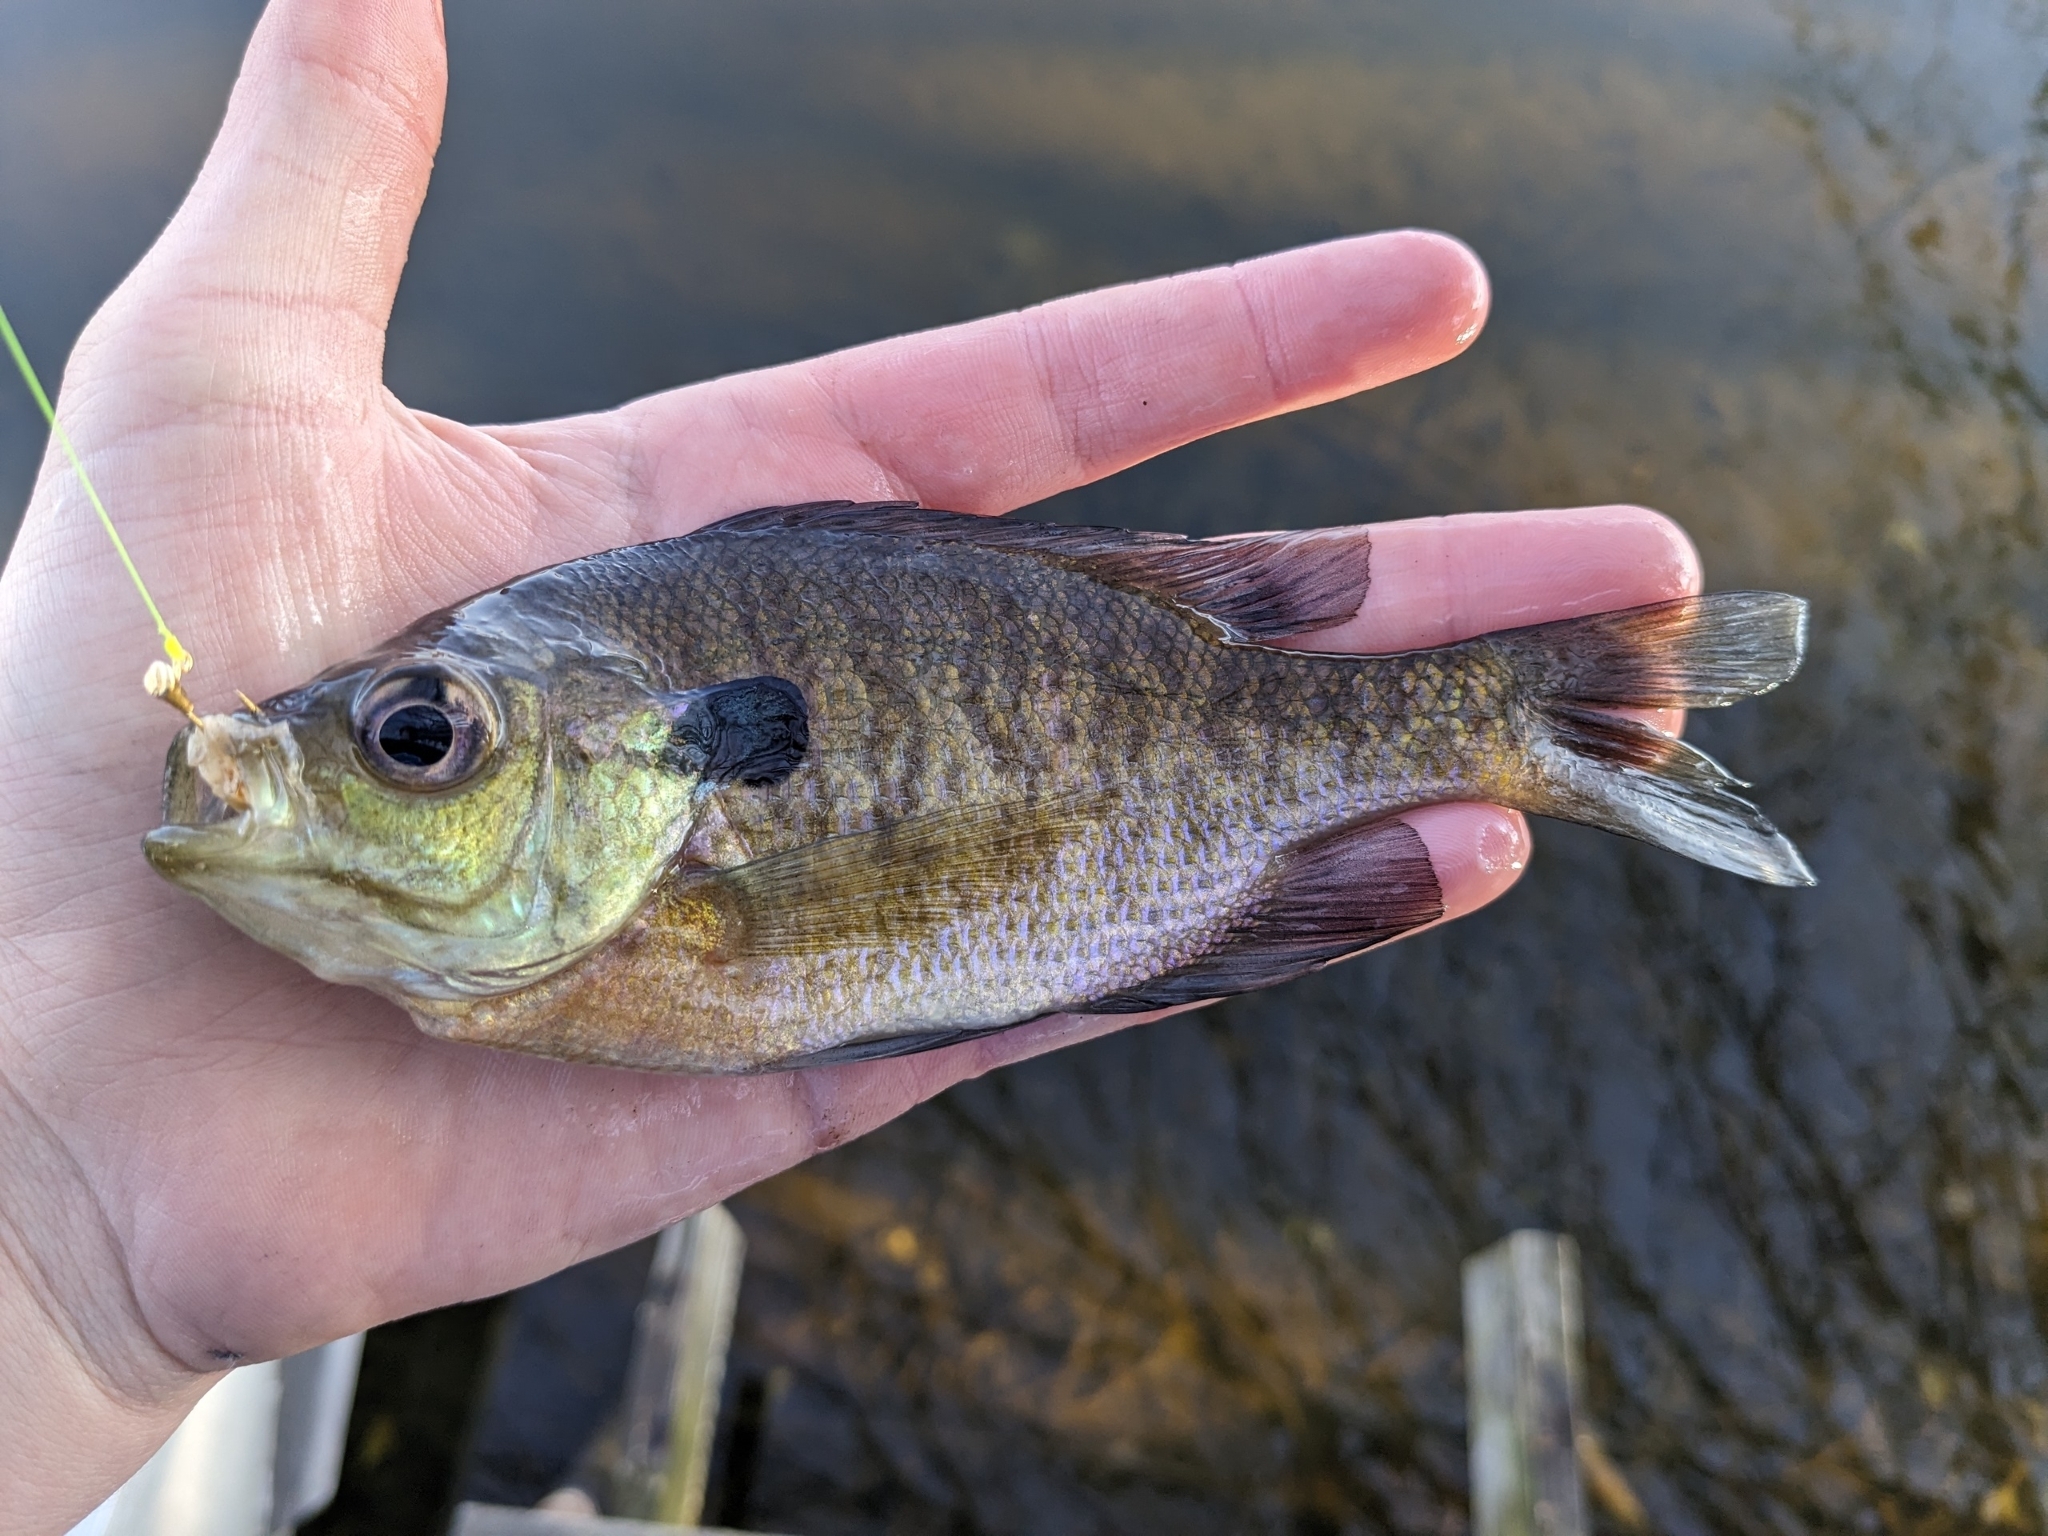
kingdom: Animalia
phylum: Chordata
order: Perciformes
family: Centrarchidae
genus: Lepomis
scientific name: Lepomis macrochirus
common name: Bluegill
